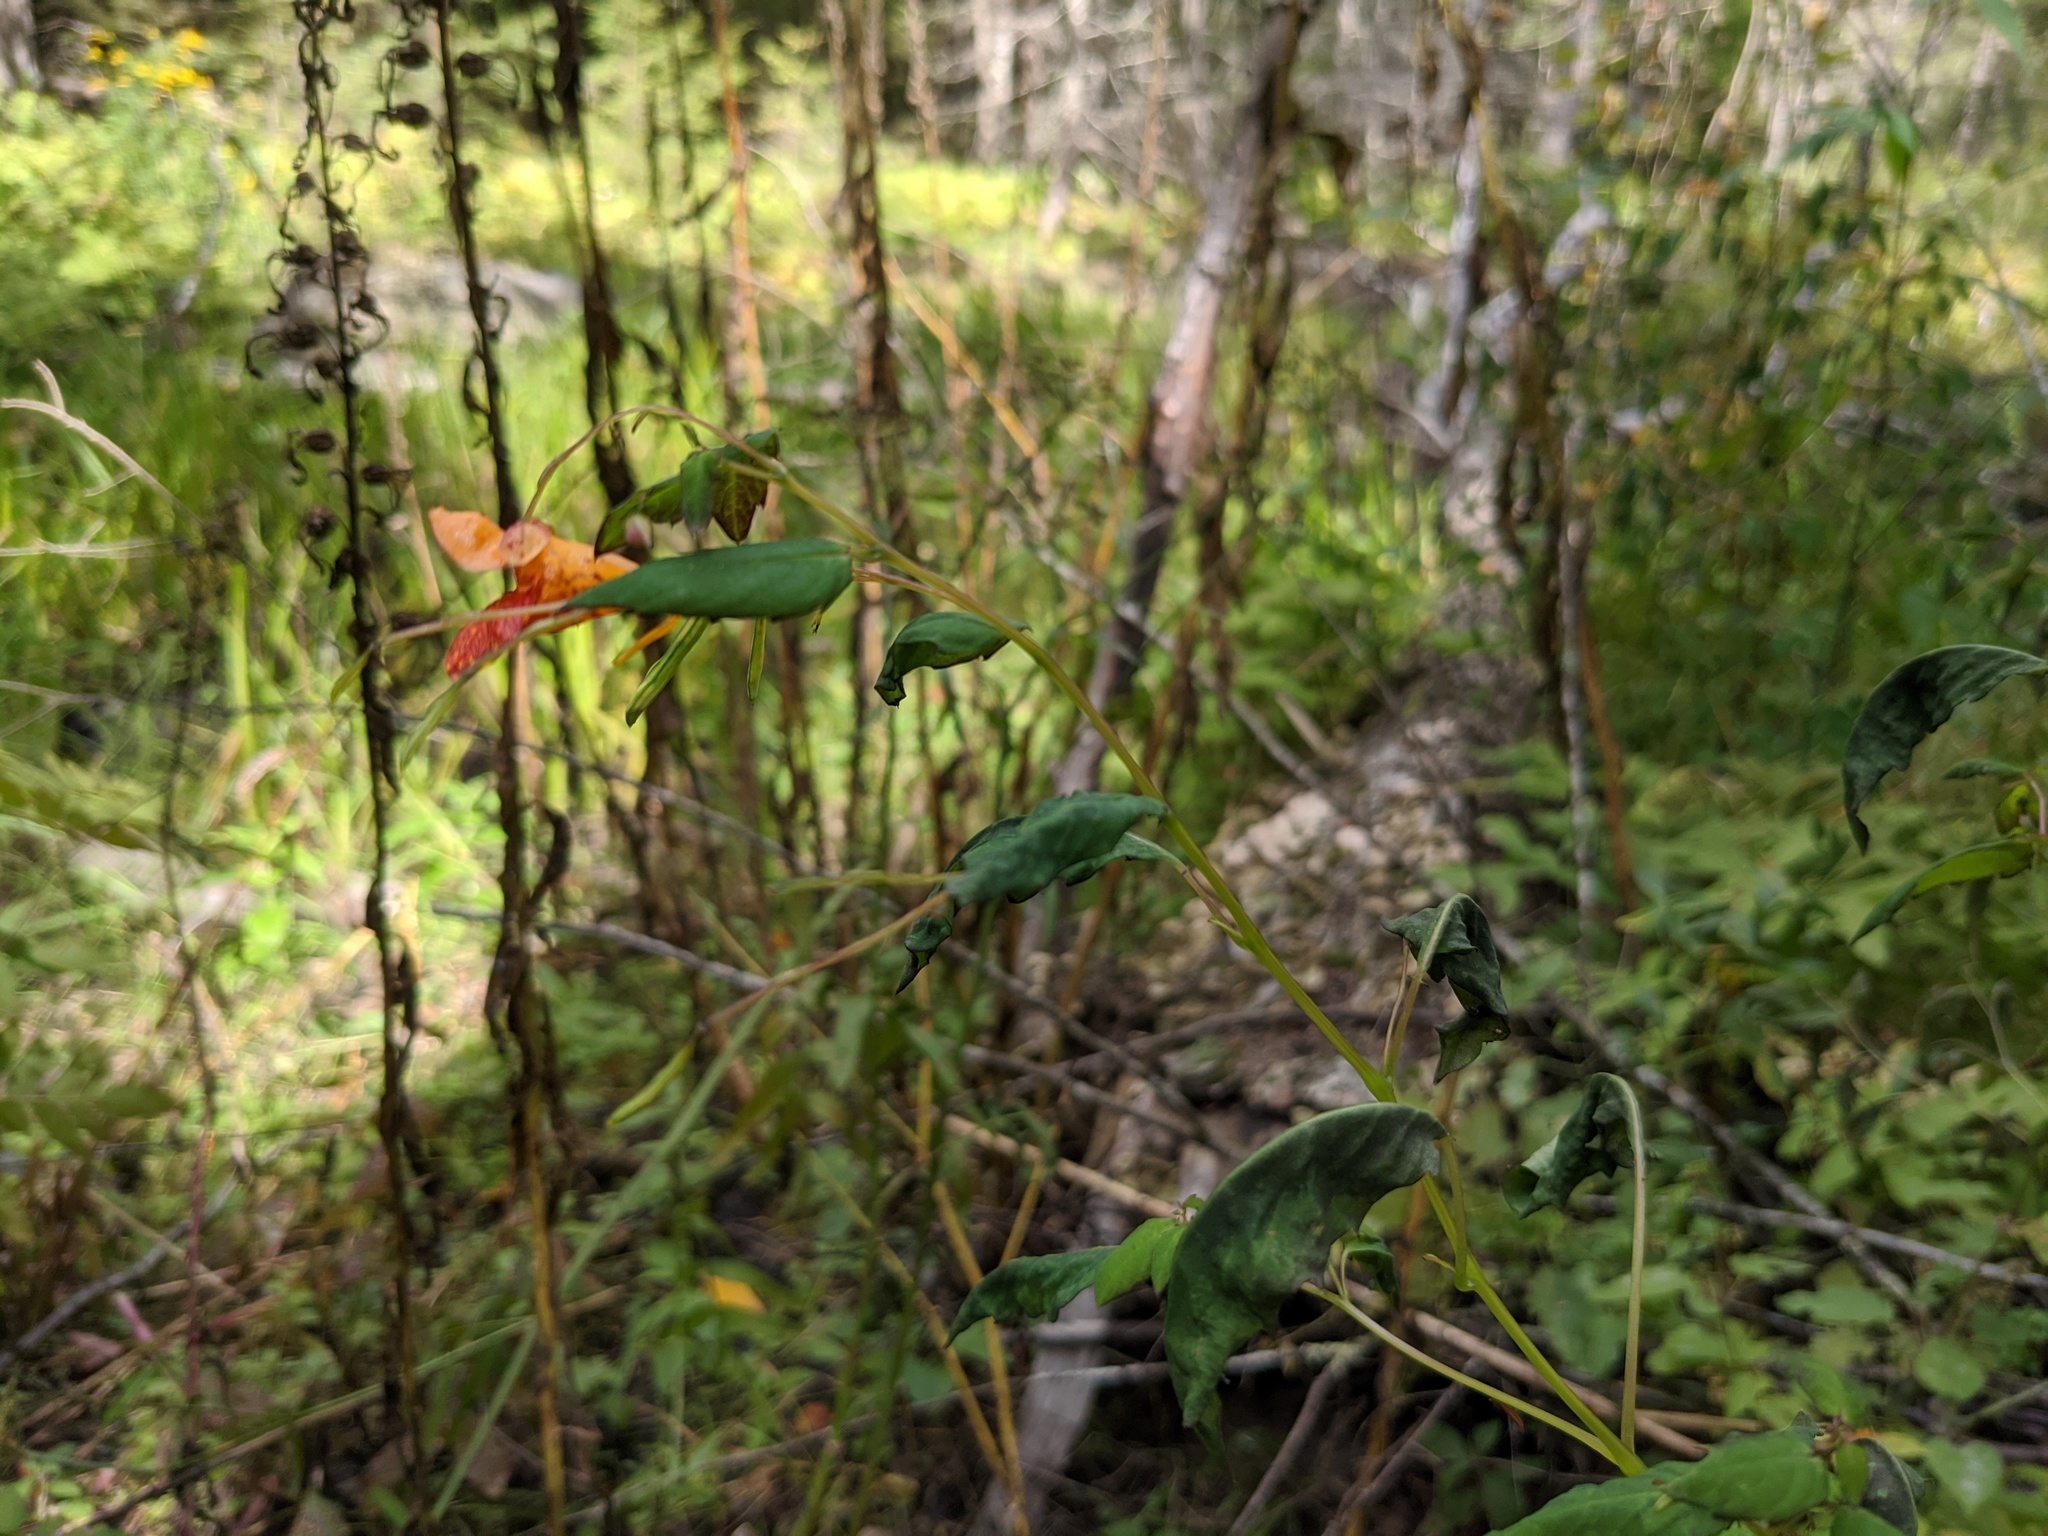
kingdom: Plantae
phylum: Tracheophyta
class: Magnoliopsida
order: Ericales
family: Balsaminaceae
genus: Impatiens
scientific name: Impatiens capensis
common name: Orange balsam
